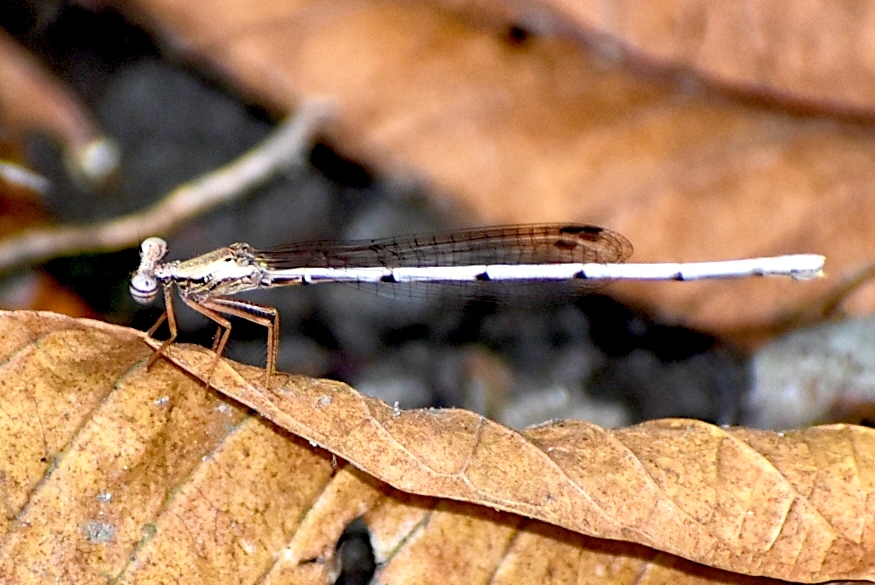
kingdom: Animalia
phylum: Arthropoda
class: Insecta
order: Odonata
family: Platycnemididae
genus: Copera
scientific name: Copera marginipes
